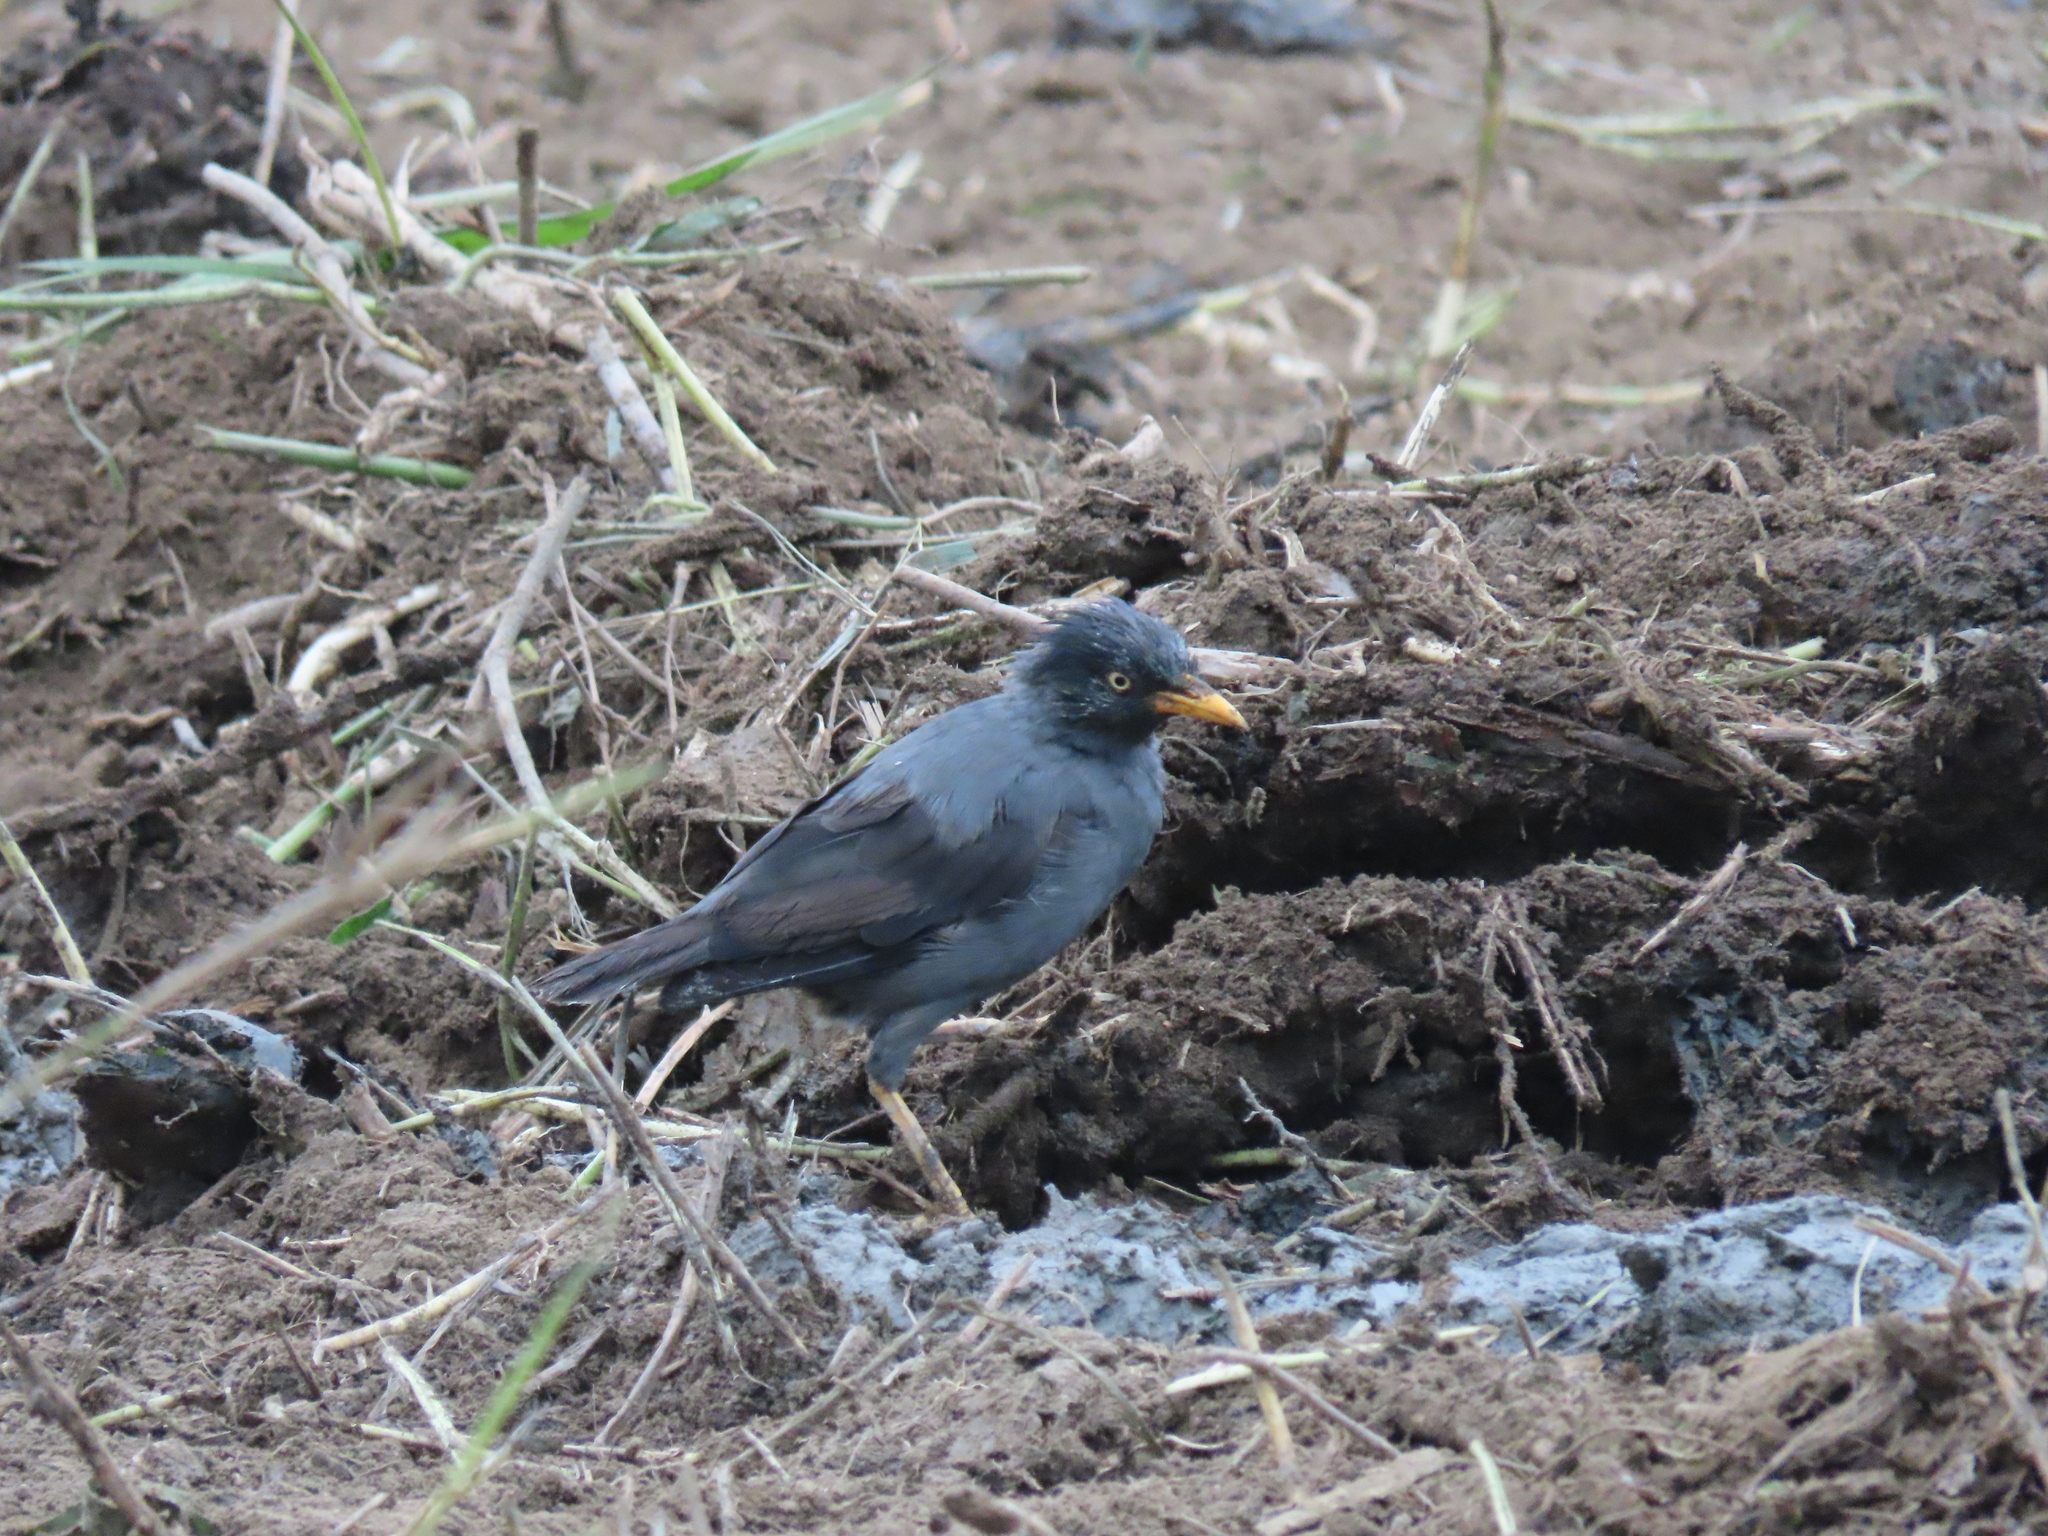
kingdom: Animalia
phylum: Chordata
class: Aves
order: Passeriformes
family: Sturnidae
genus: Acridotheres
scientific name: Acridotheres javanicus
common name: Javan myna
